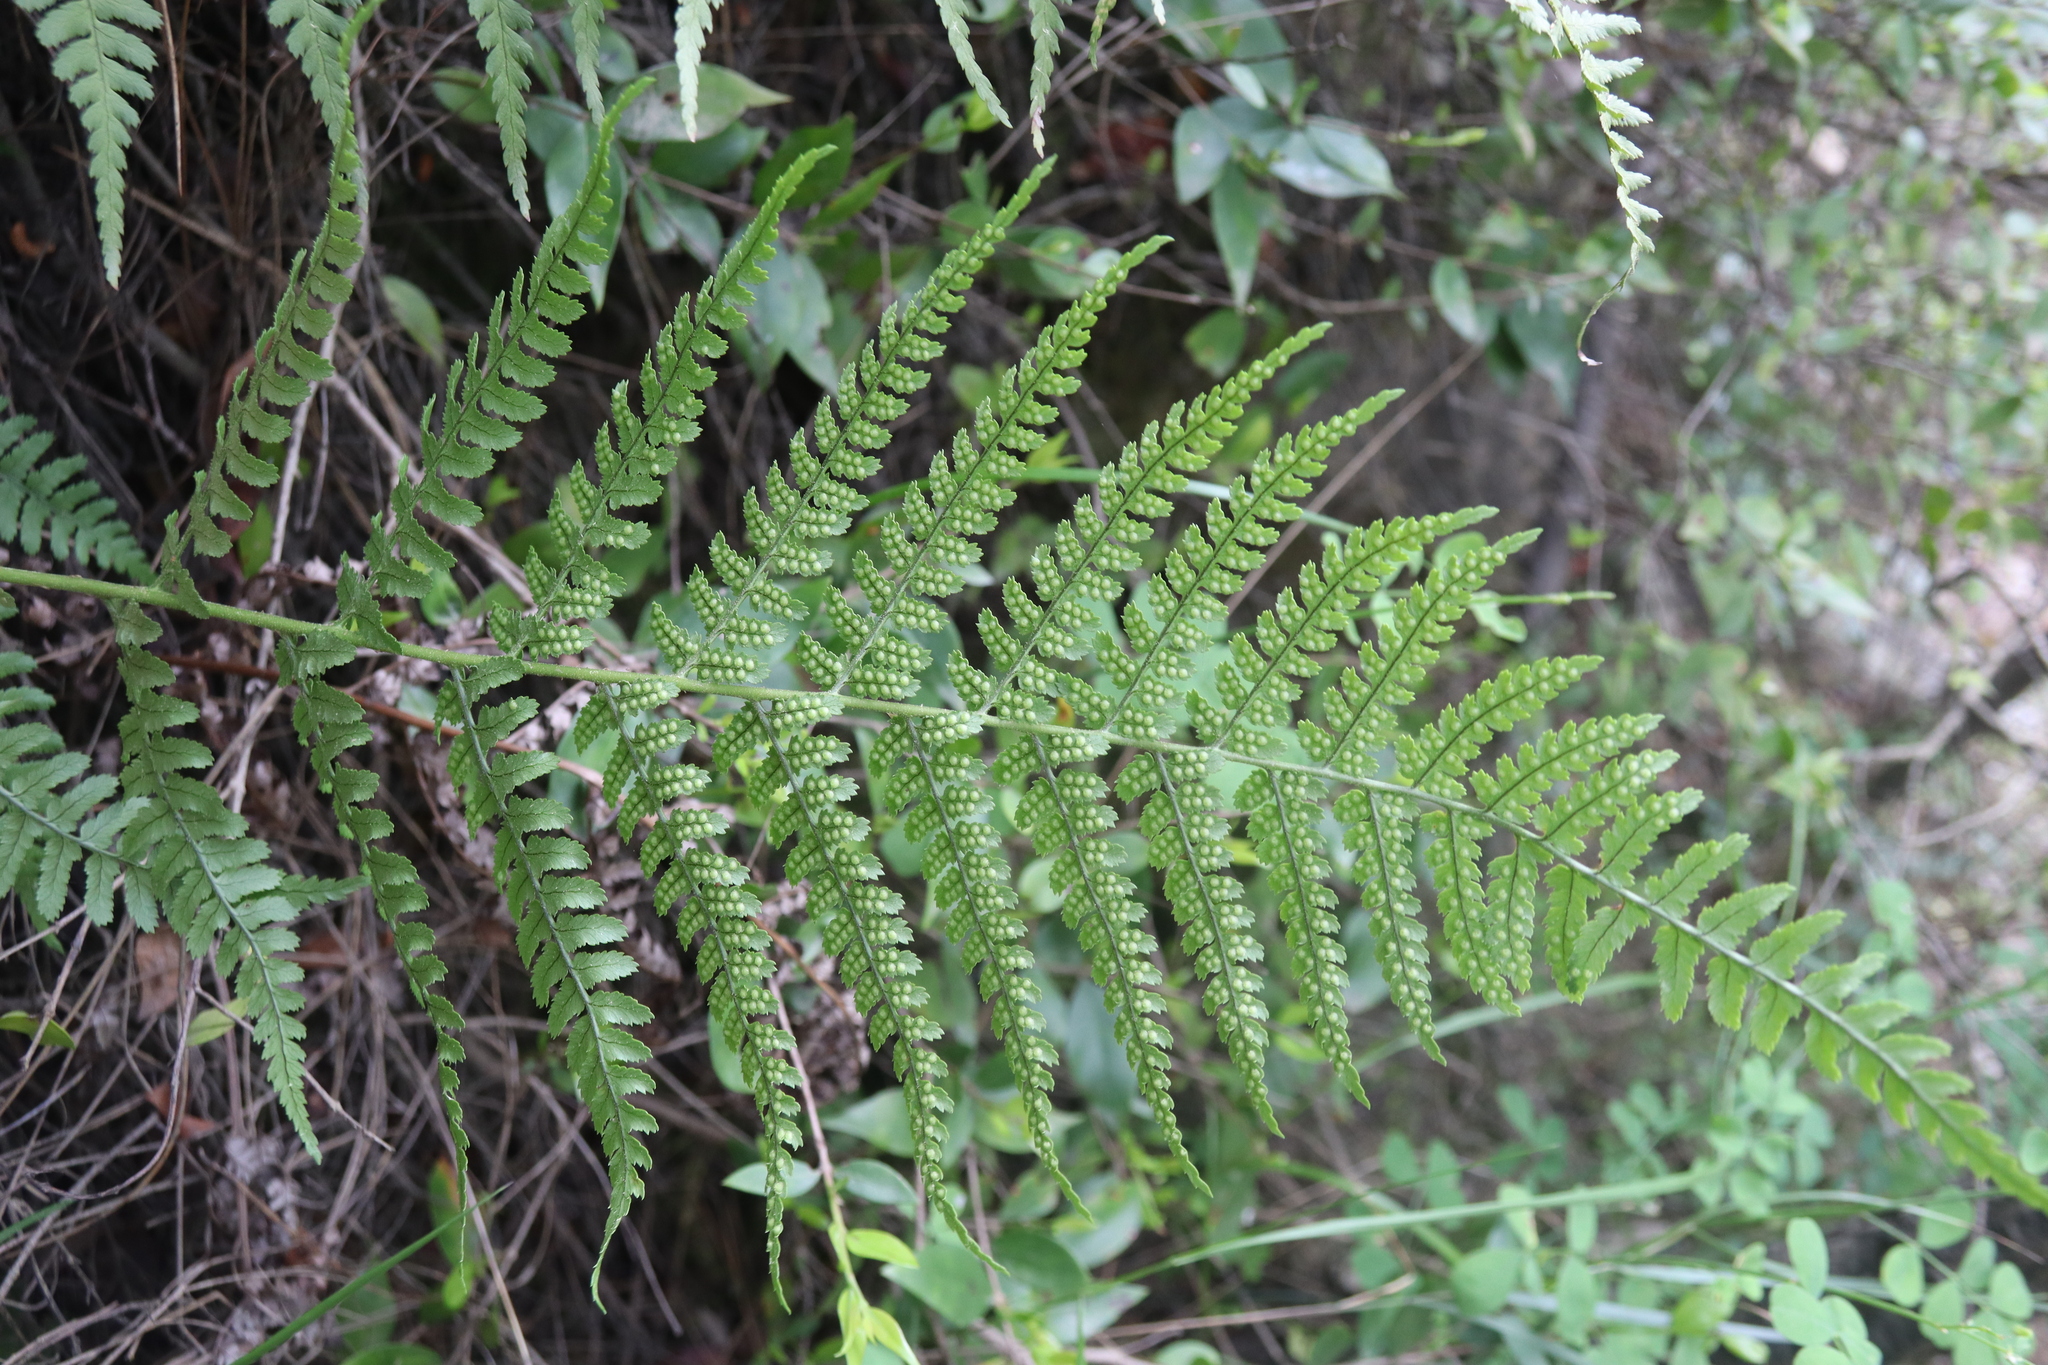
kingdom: Plantae
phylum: Tracheophyta
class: Polypodiopsida
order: Polypodiales
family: Dryopteridaceae
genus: Dryopteris
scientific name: Dryopteris pallida
